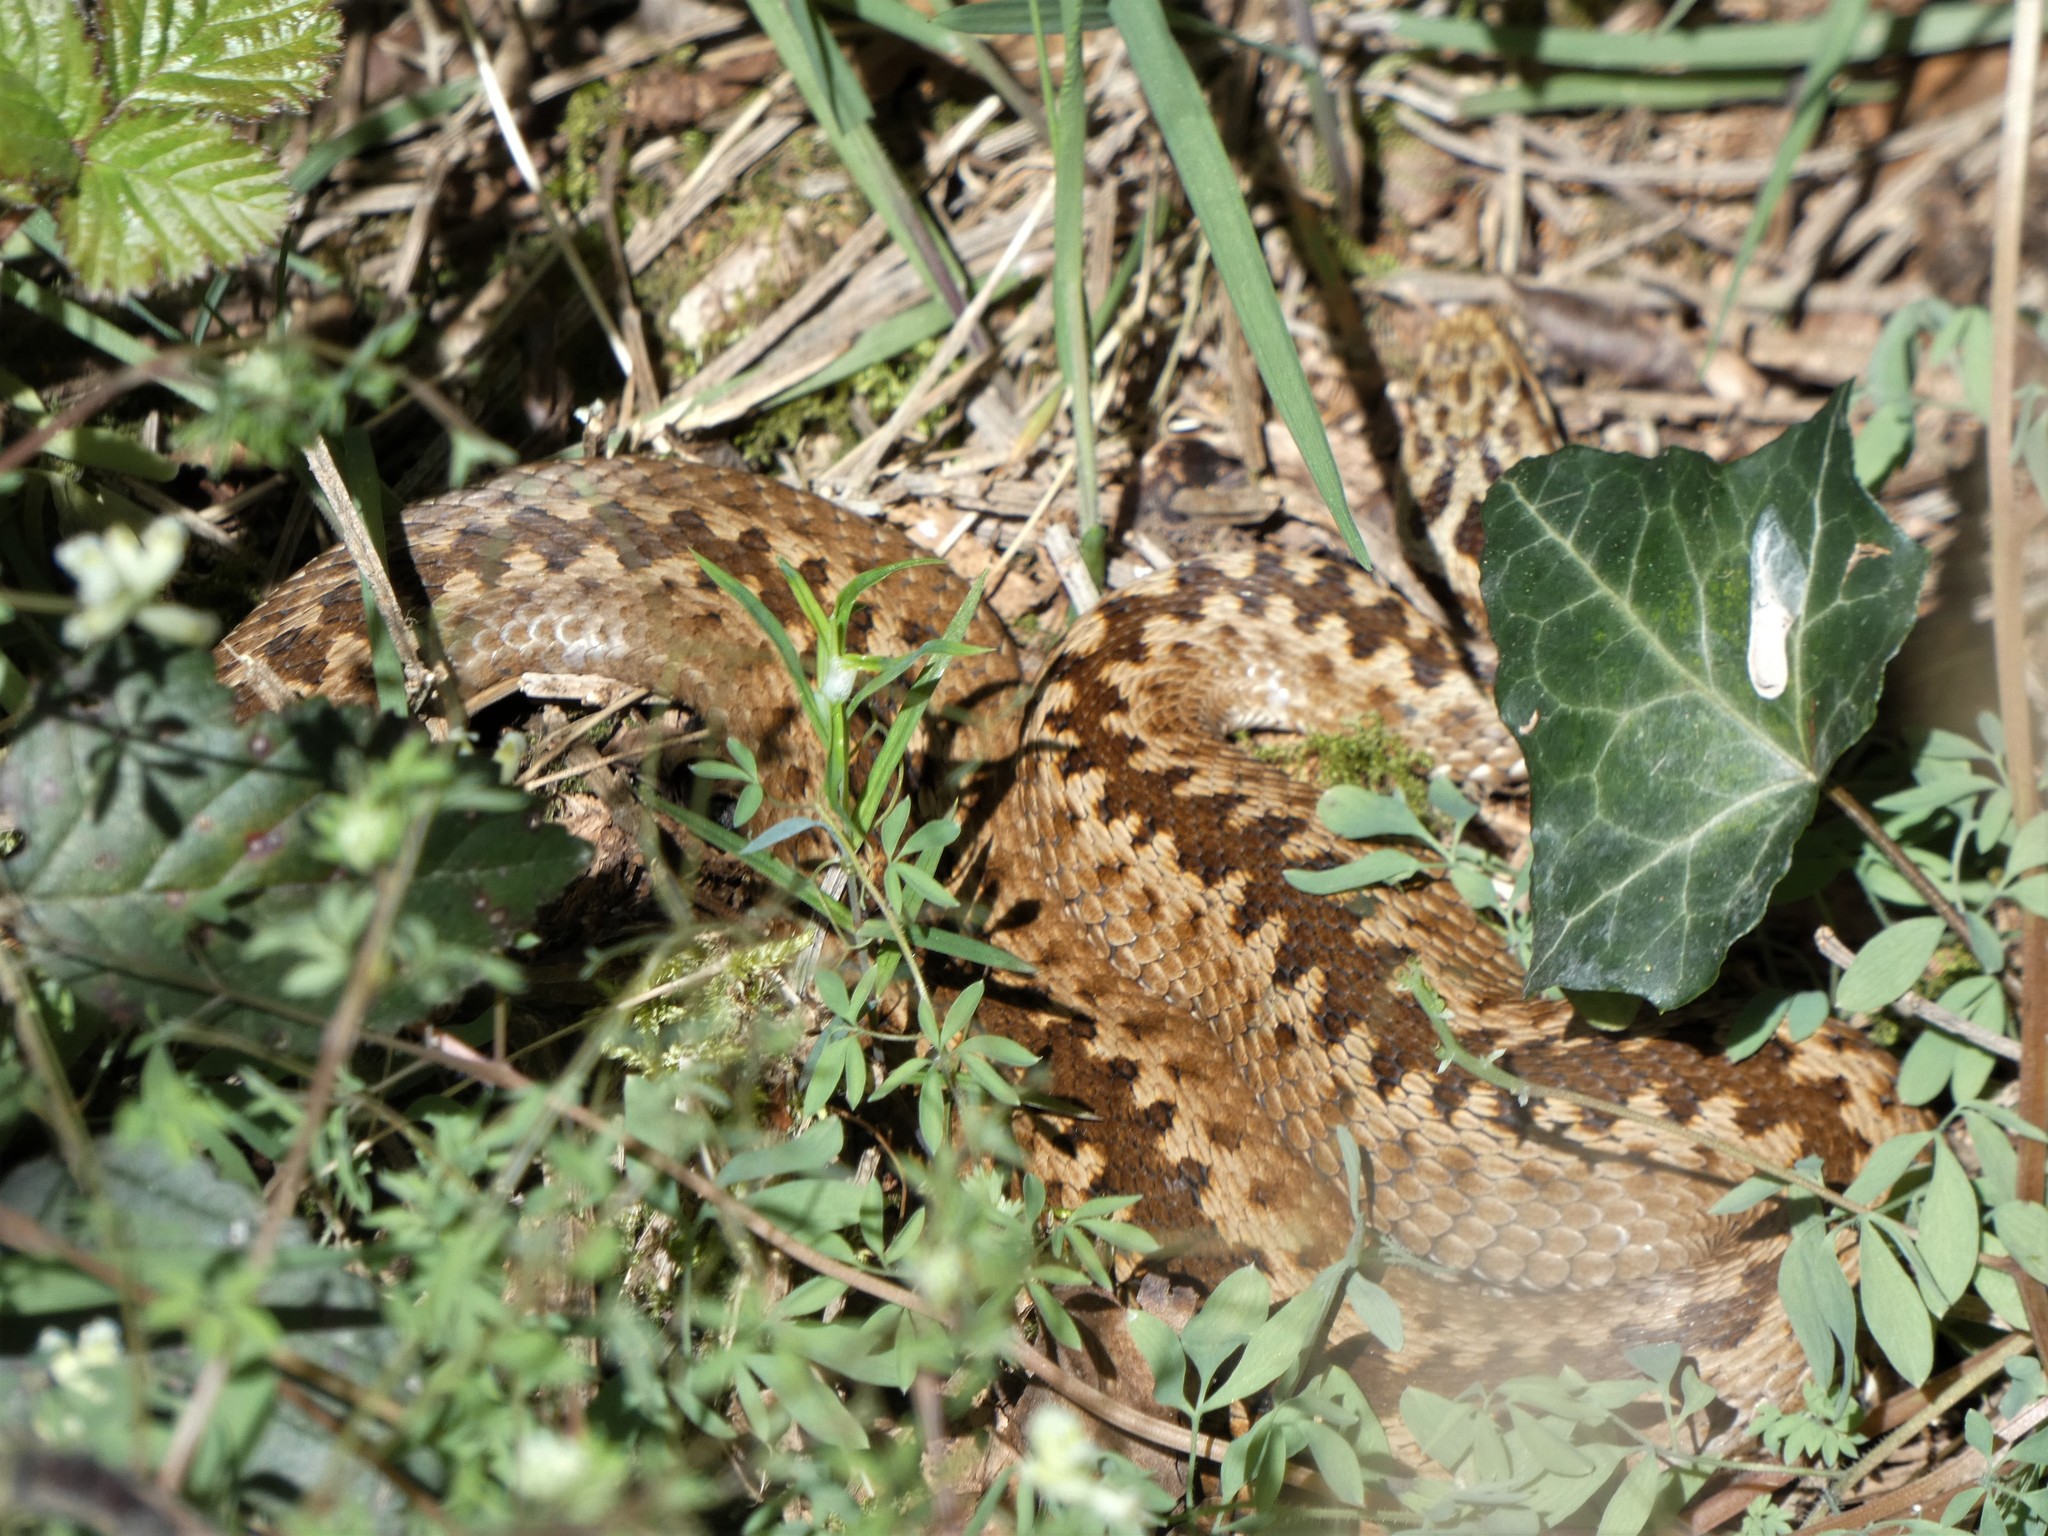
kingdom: Animalia
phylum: Chordata
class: Squamata
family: Viperidae
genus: Vipera
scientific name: Vipera berus
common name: Adder
